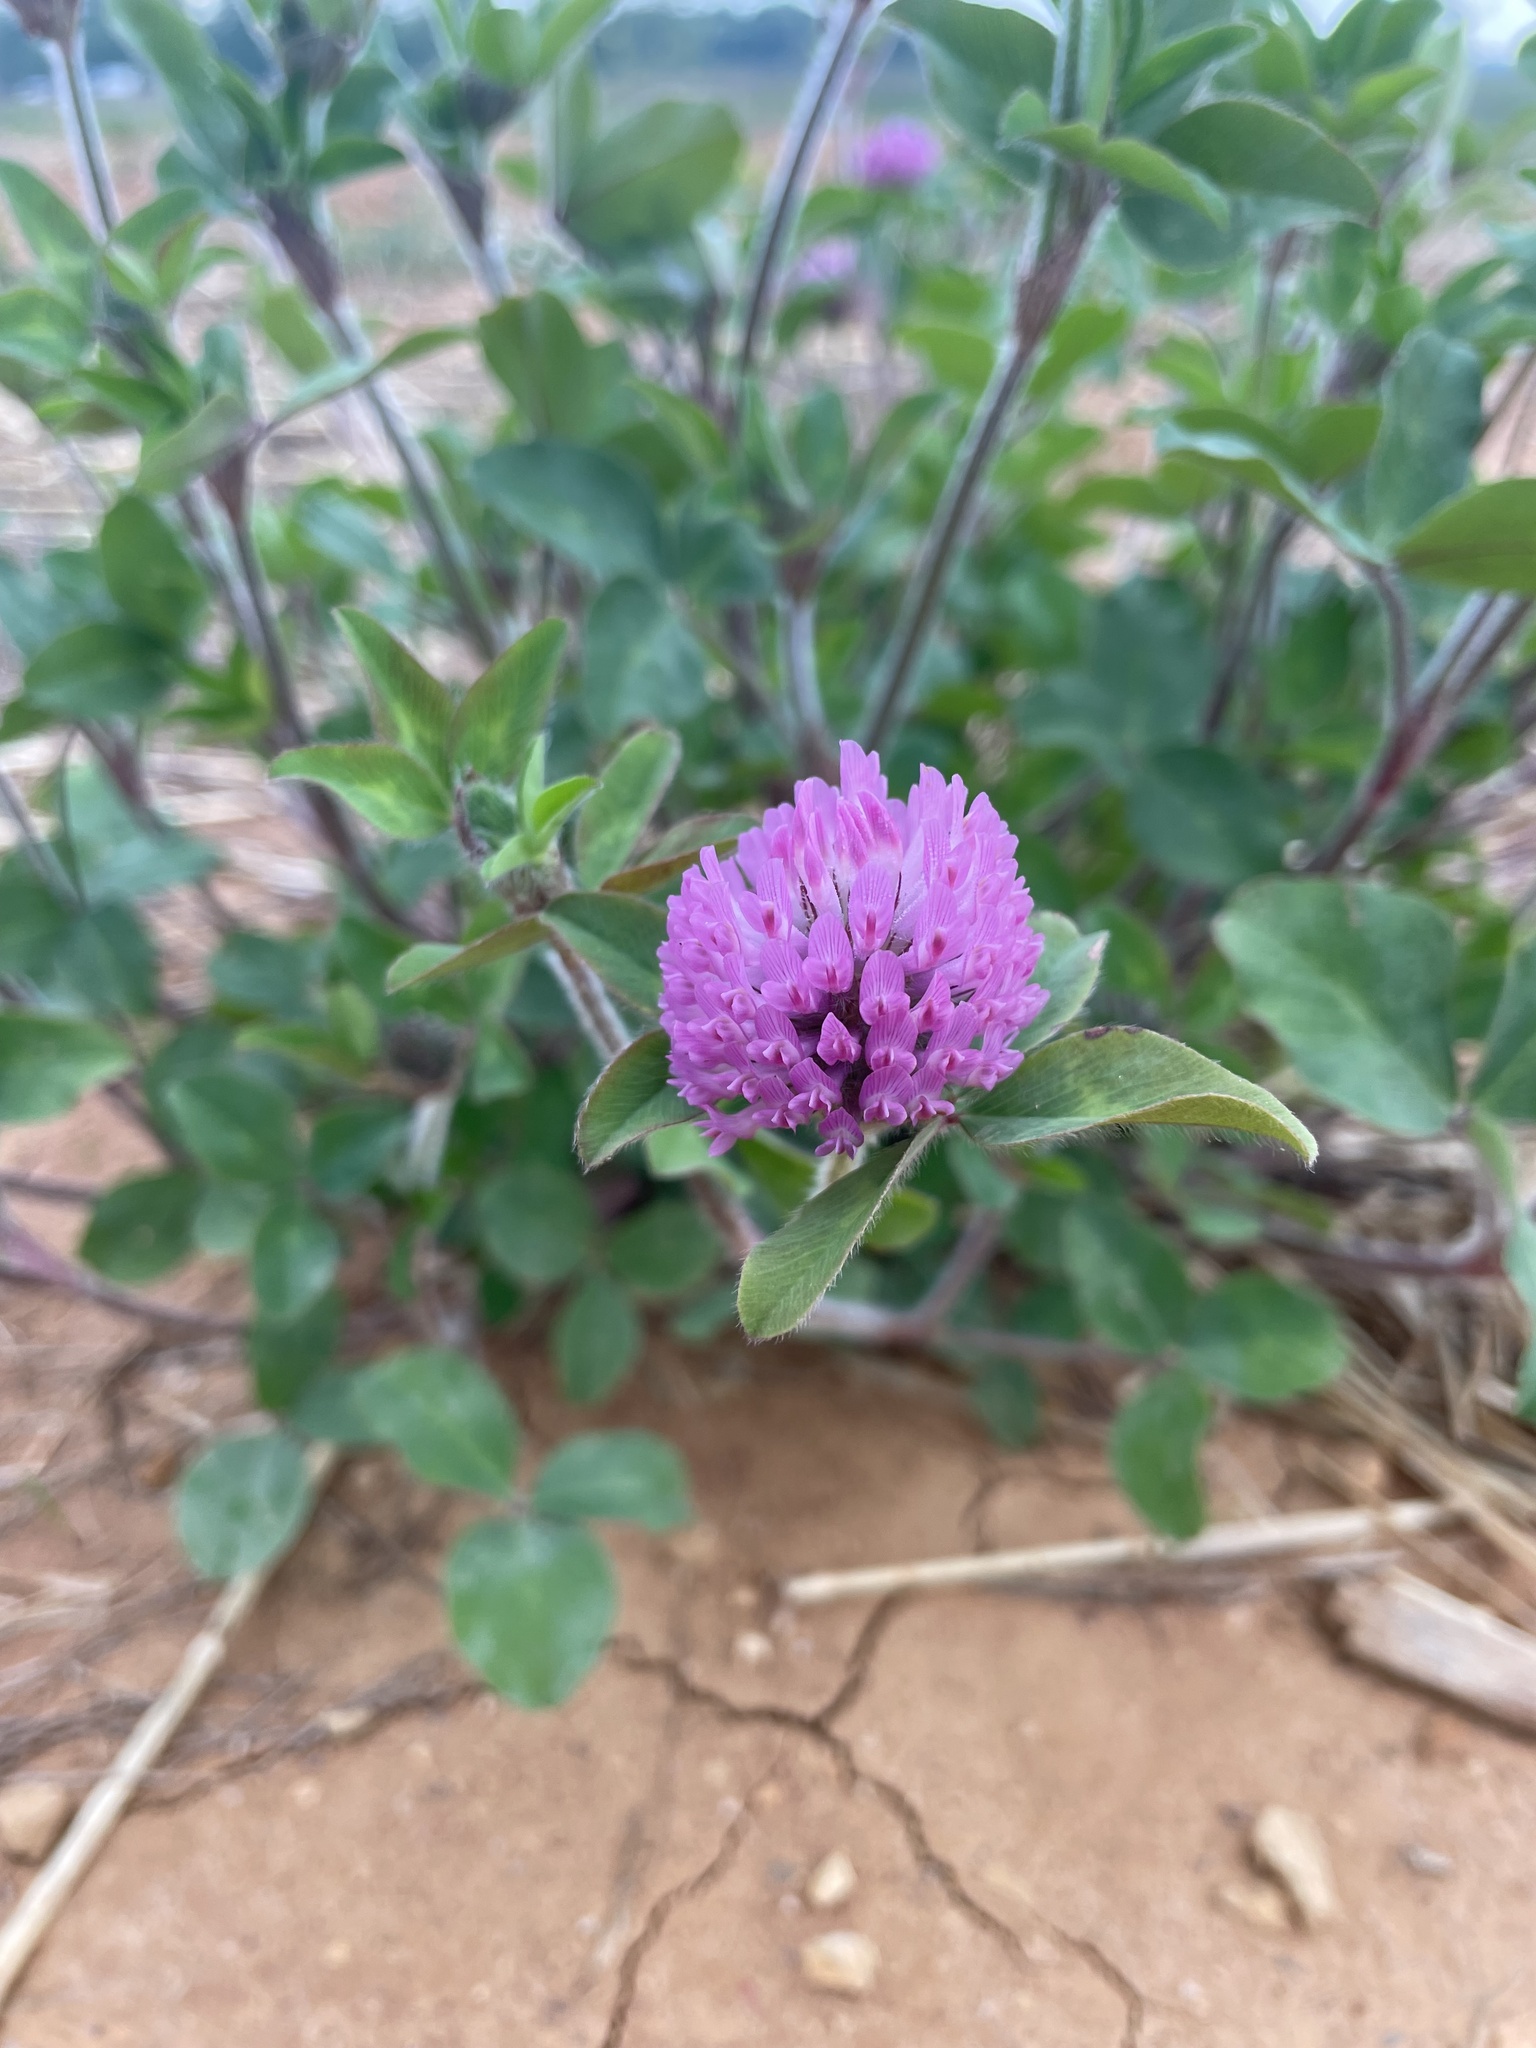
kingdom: Plantae
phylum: Tracheophyta
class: Magnoliopsida
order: Fabales
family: Fabaceae
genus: Trifolium
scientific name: Trifolium pratense
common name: Red clover
